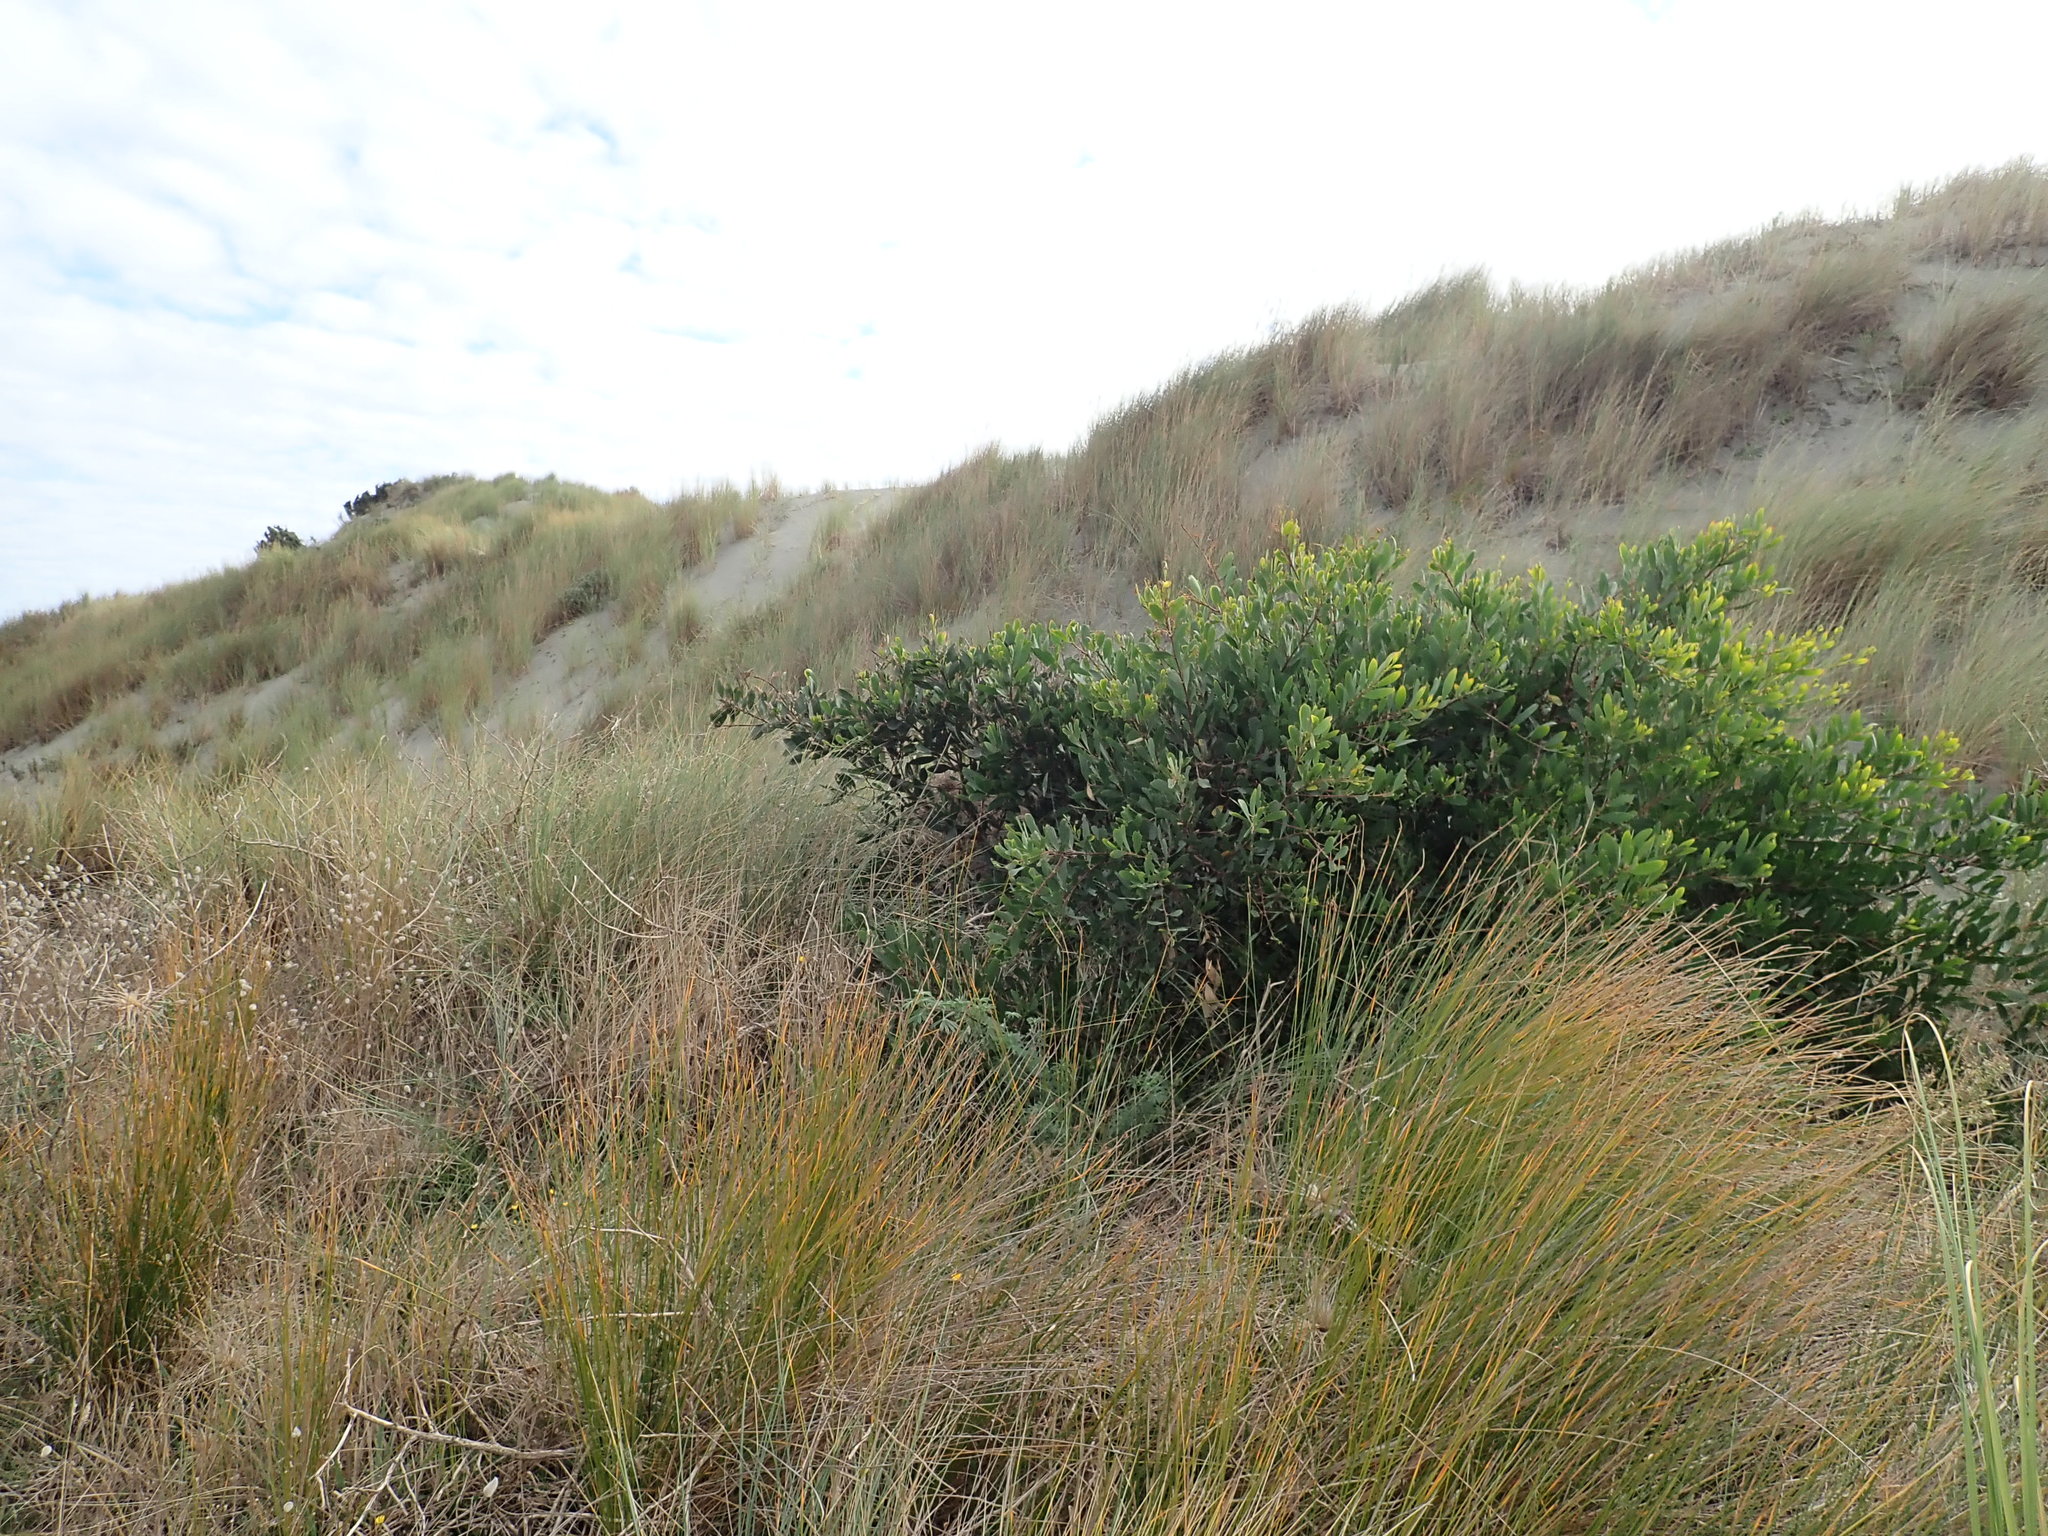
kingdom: Plantae
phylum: Tracheophyta
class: Magnoliopsida
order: Fabales
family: Fabaceae
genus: Acacia
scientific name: Acacia longifolia
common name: Sydney golden wattle
